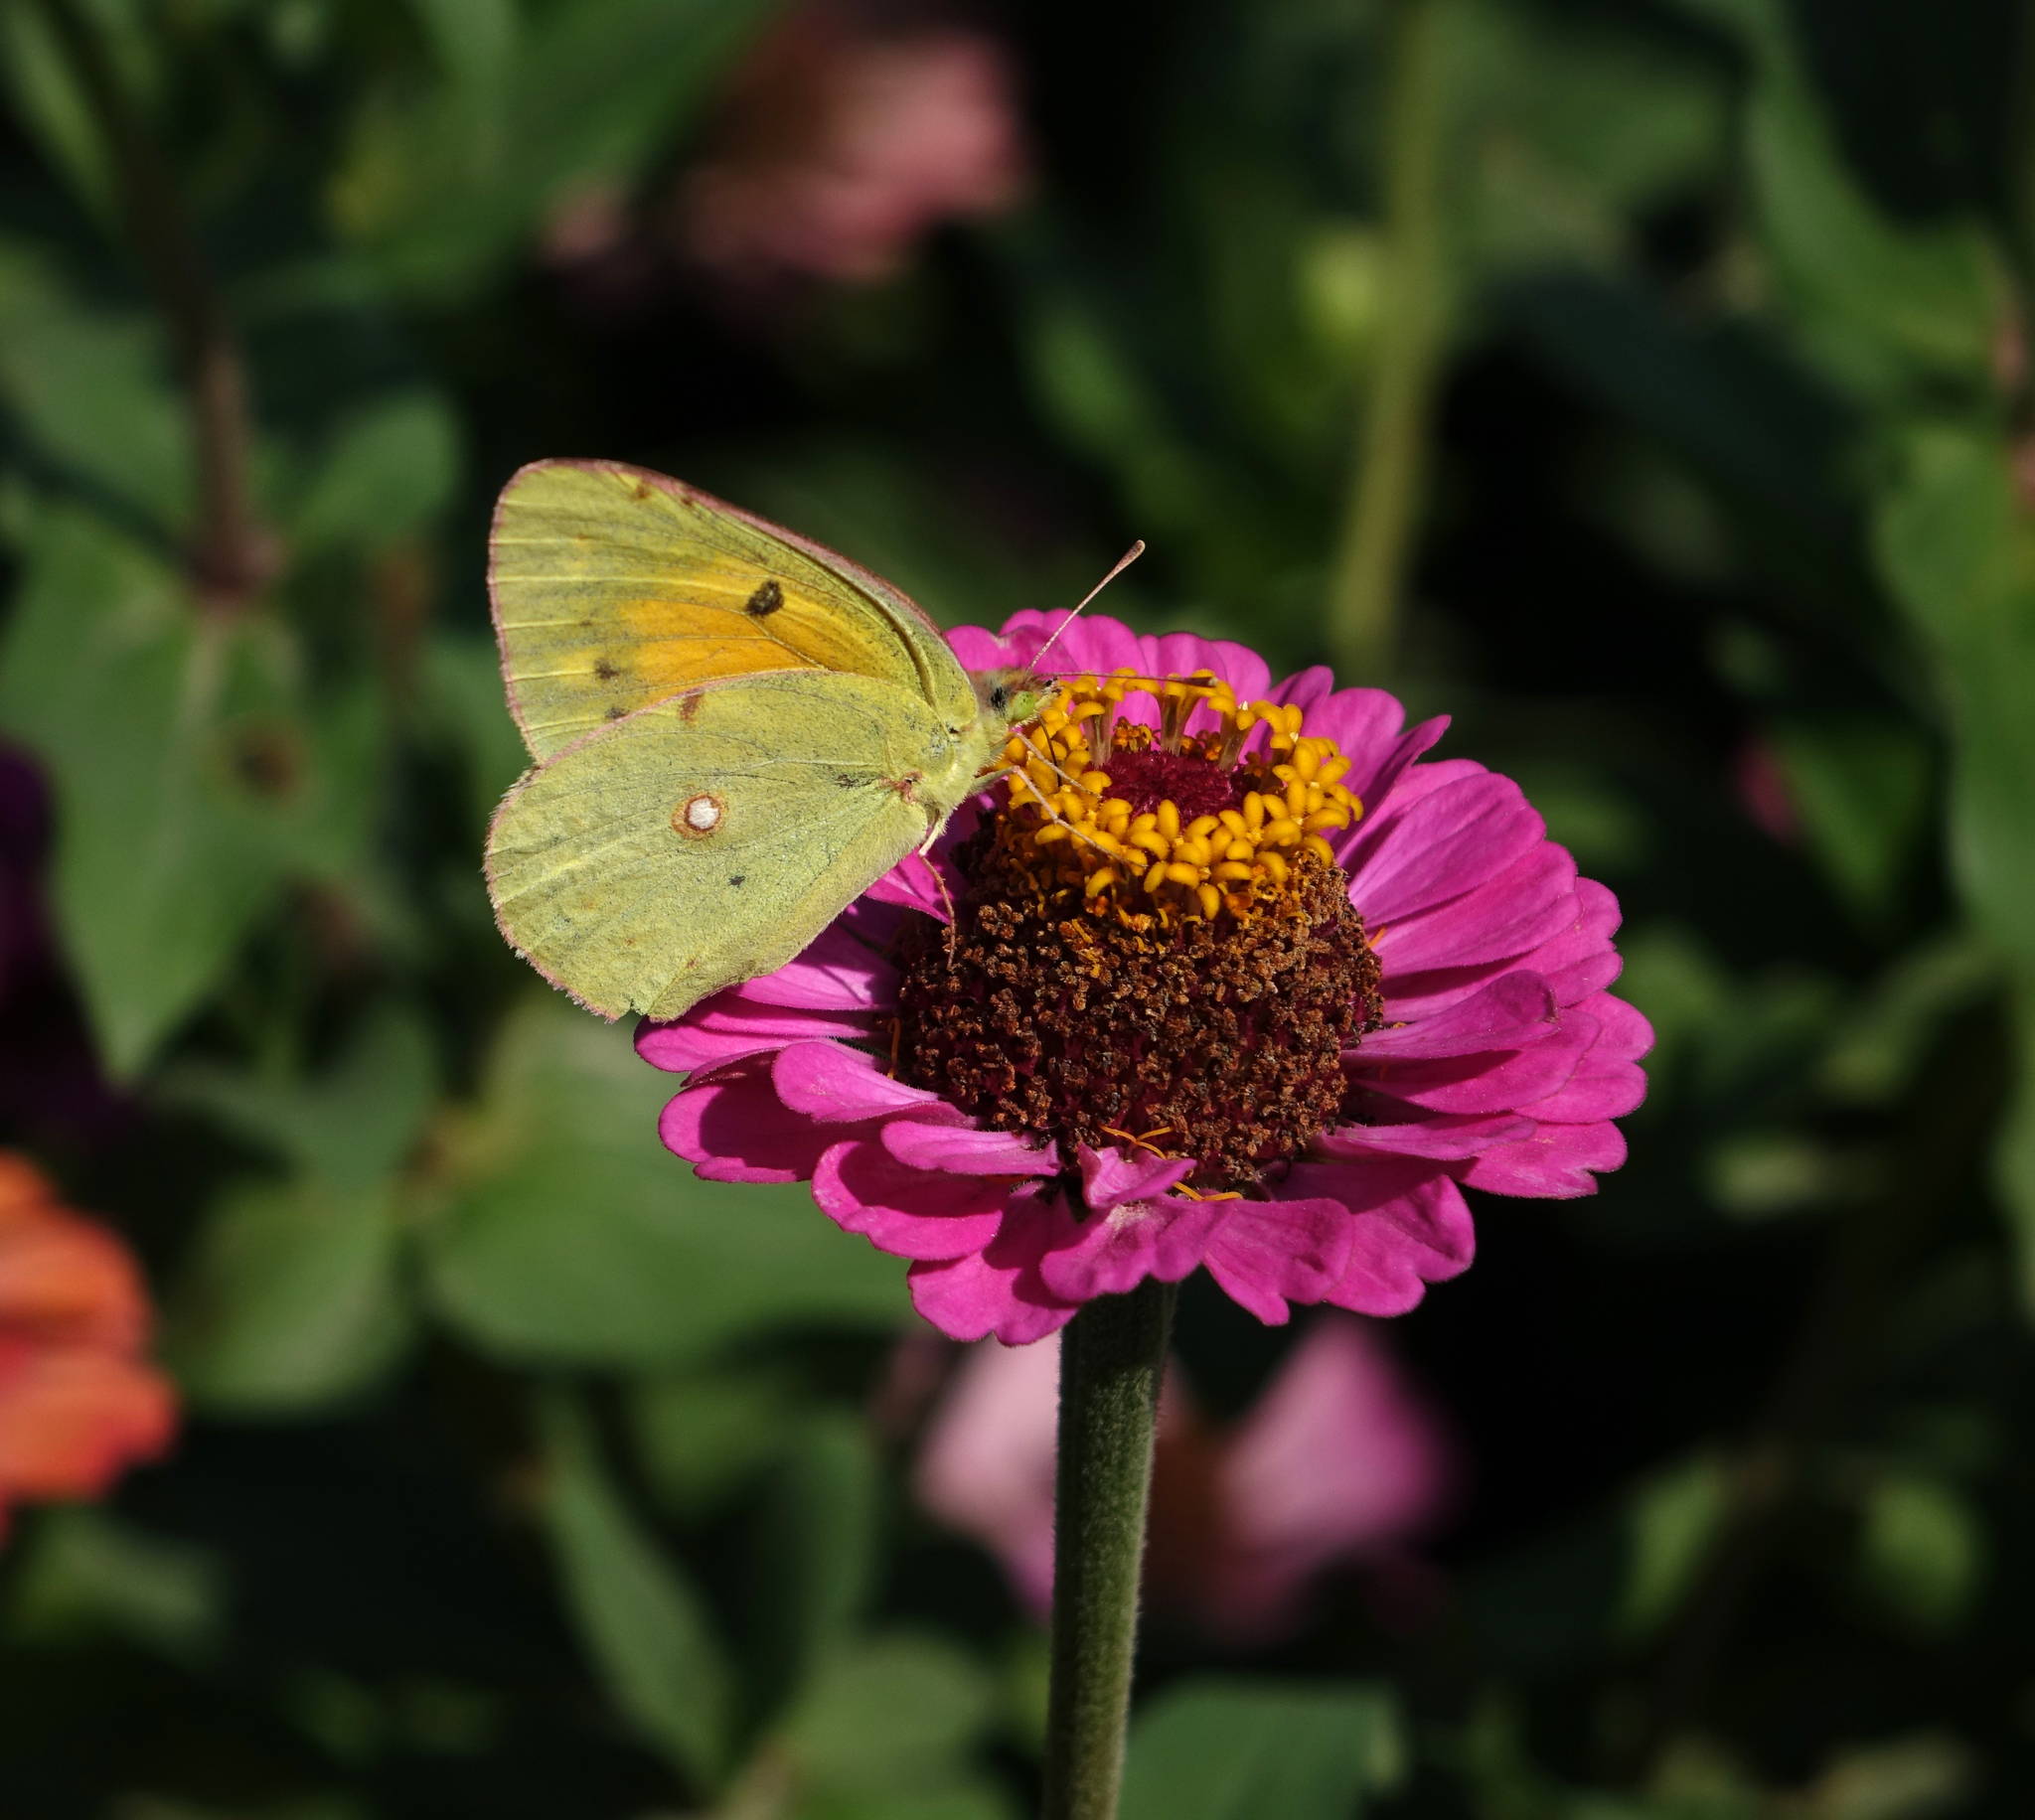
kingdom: Animalia
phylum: Arthropoda
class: Insecta
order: Lepidoptera
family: Pieridae
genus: Colias
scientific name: Colias croceus
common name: Clouded yellow
